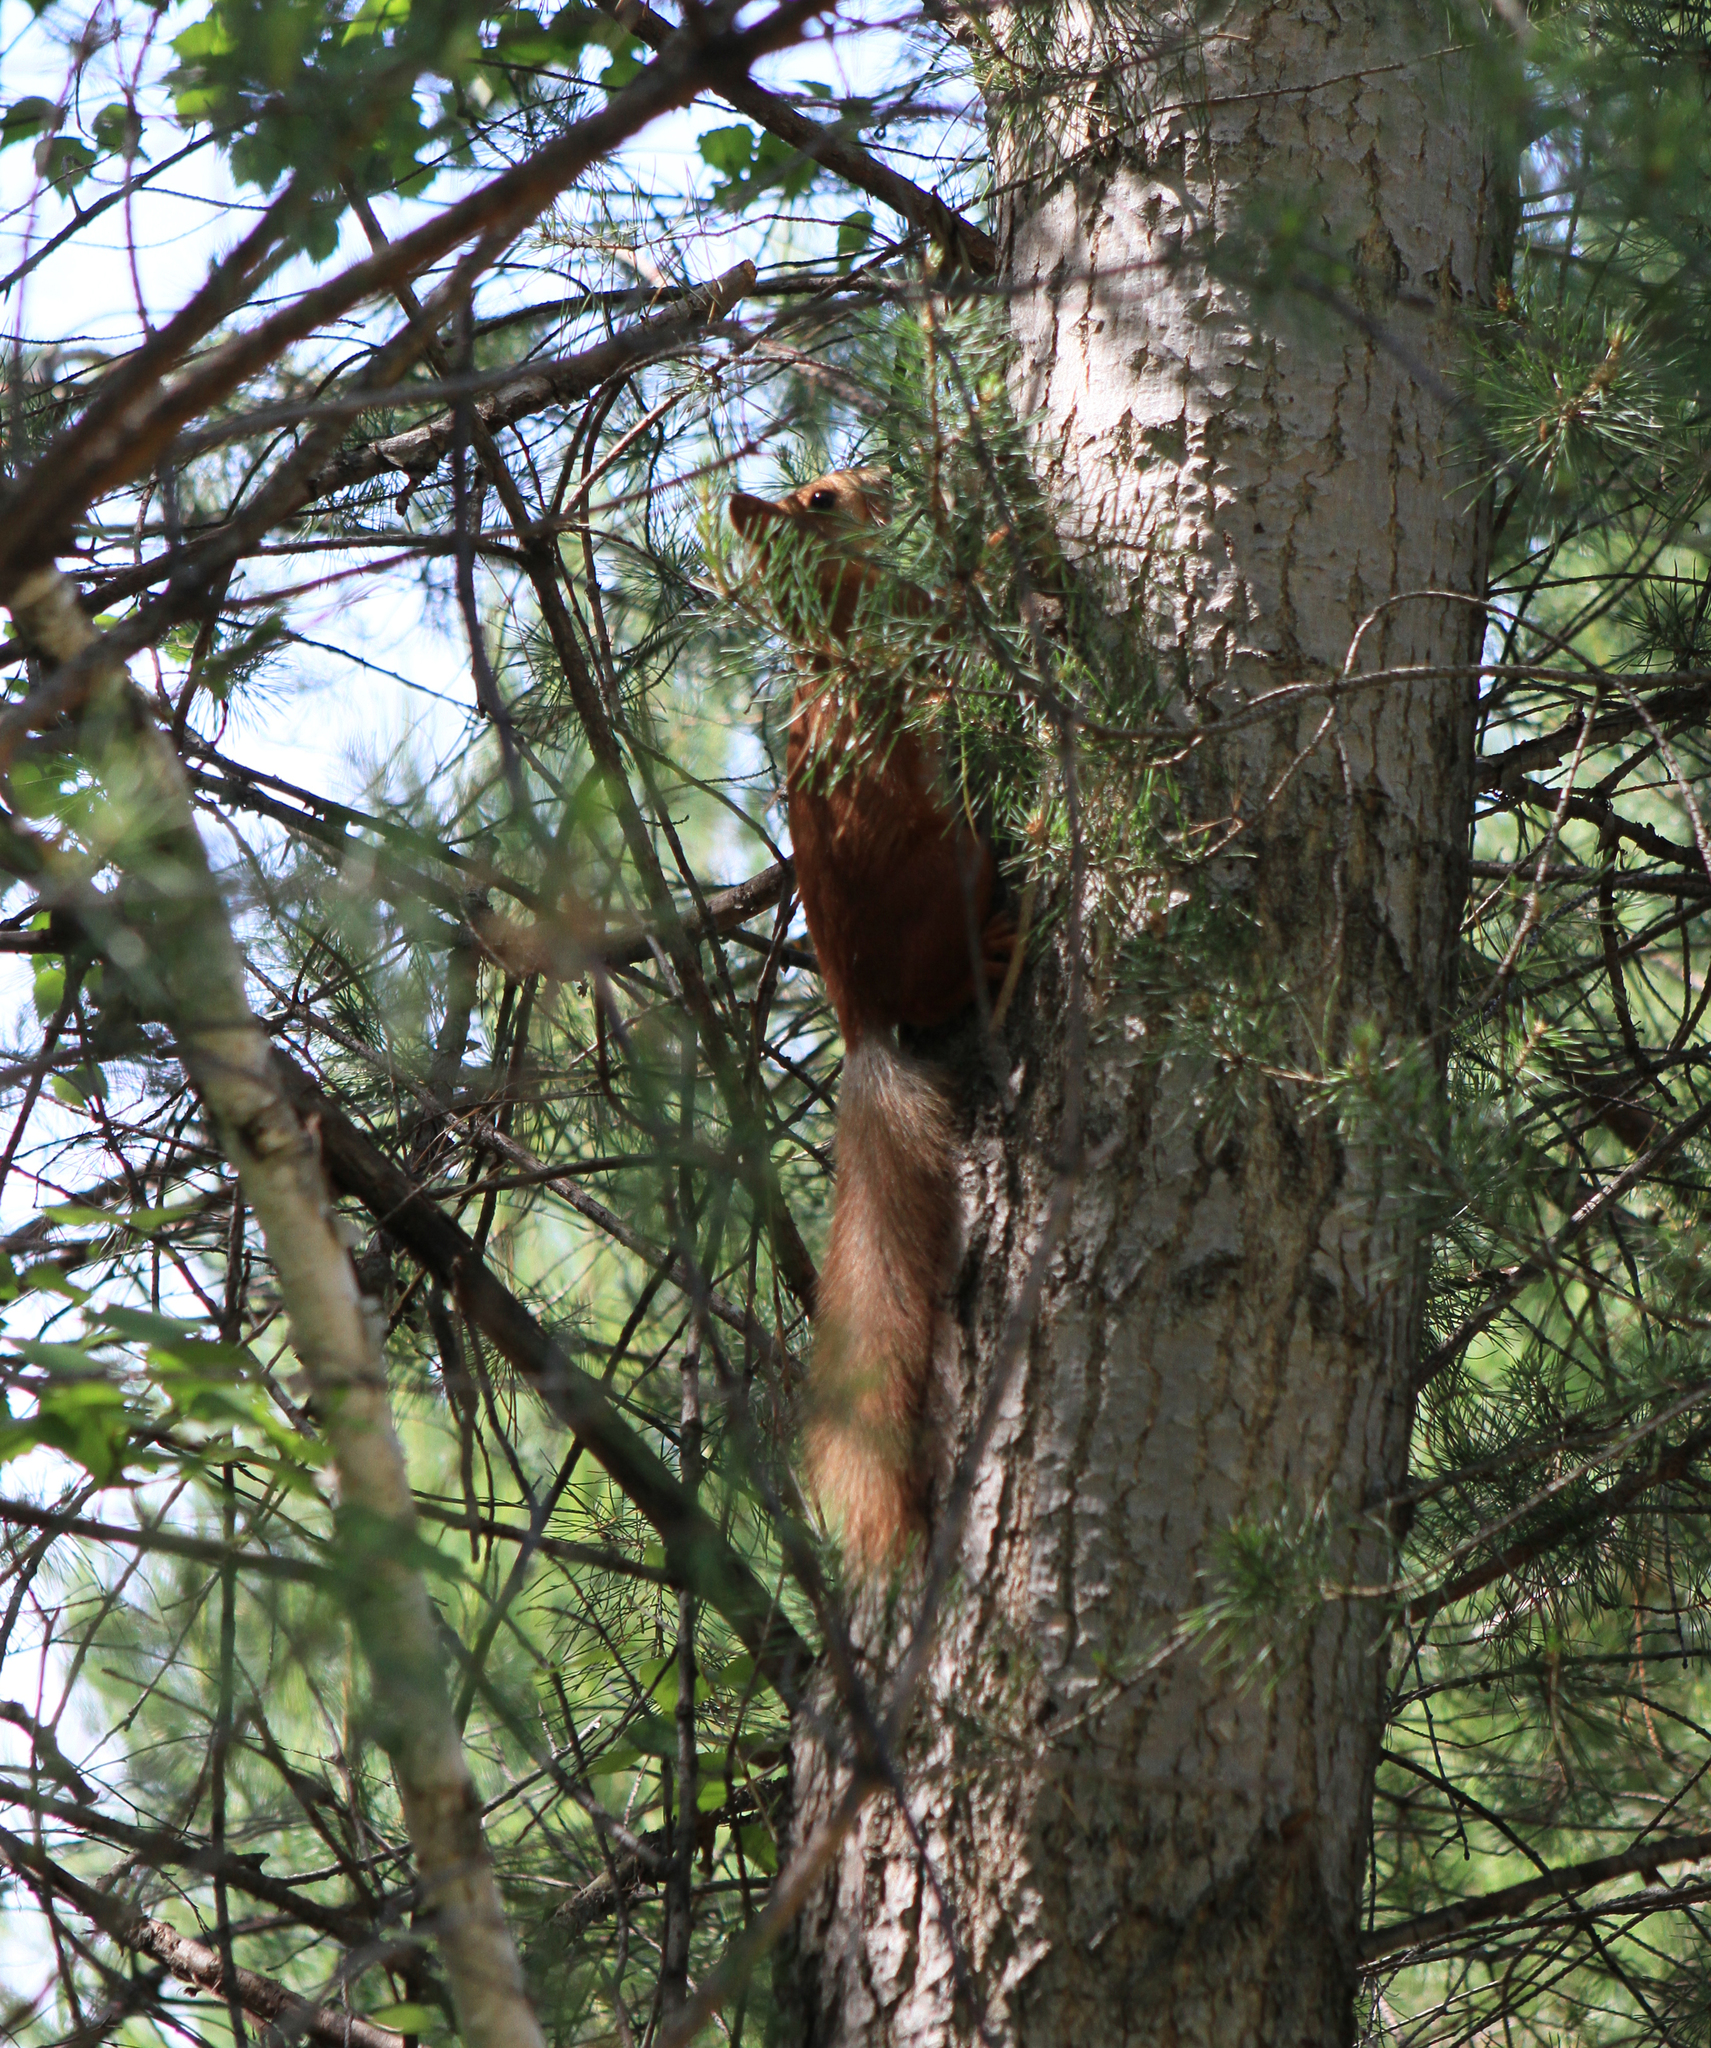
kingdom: Animalia
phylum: Chordata
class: Mammalia
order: Rodentia
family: Sciuridae
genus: Sciurus
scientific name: Sciurus vulgaris
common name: Eurasian red squirrel
